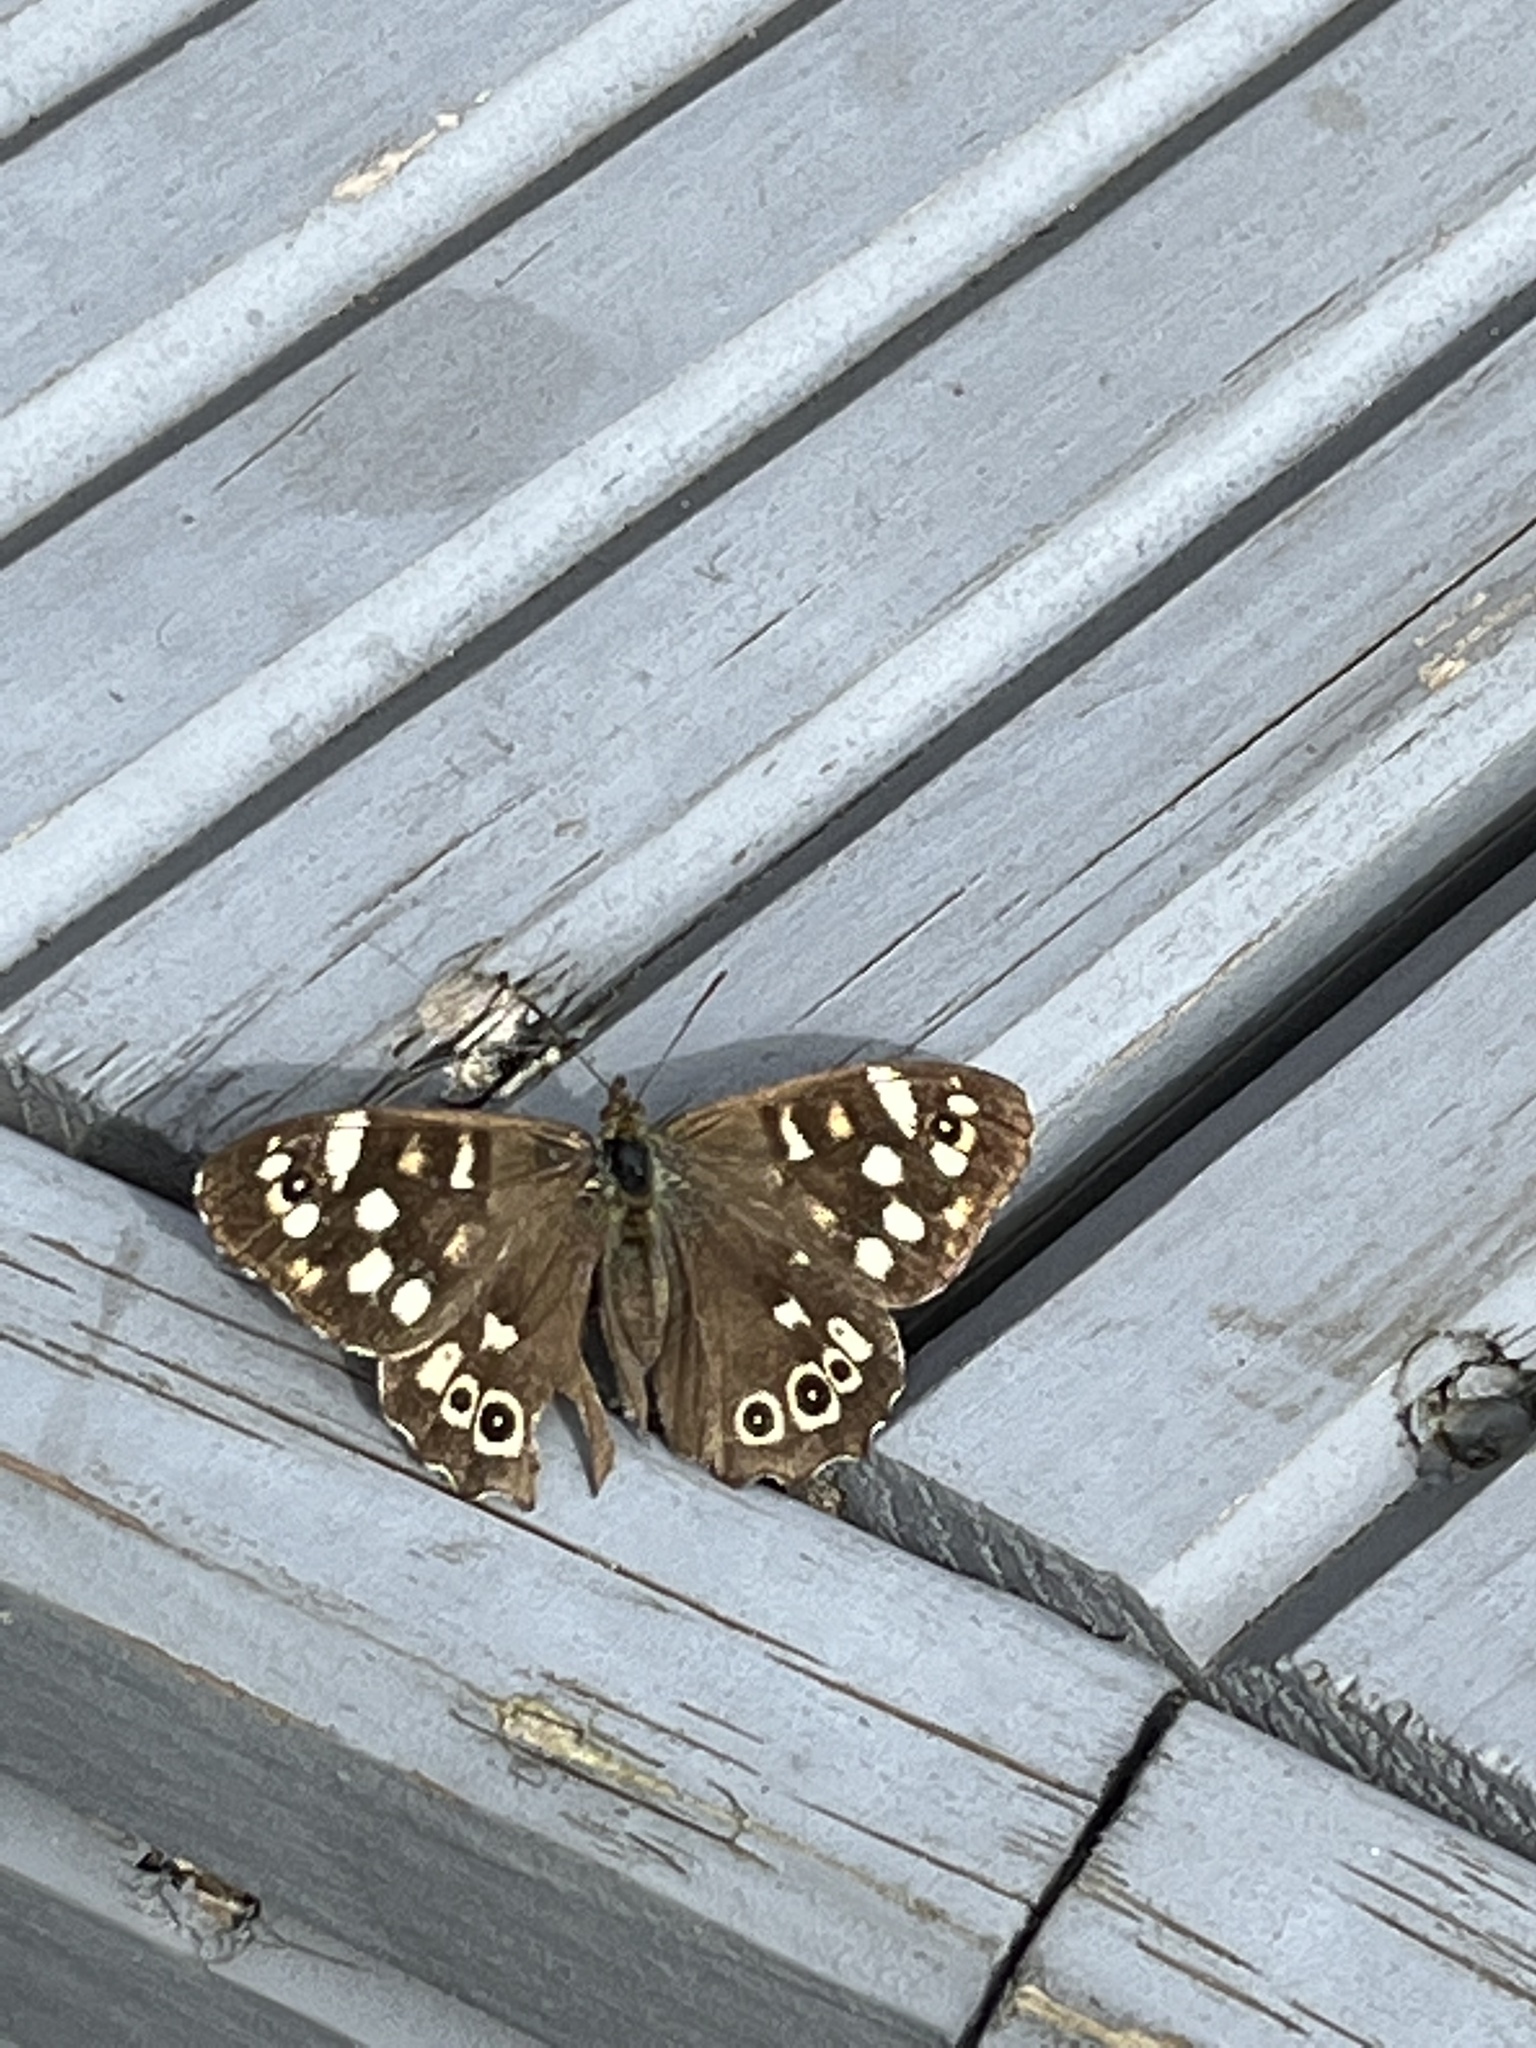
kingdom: Animalia
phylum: Arthropoda
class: Insecta
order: Lepidoptera
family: Nymphalidae
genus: Pararge
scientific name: Pararge aegeria
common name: Speckled wood
